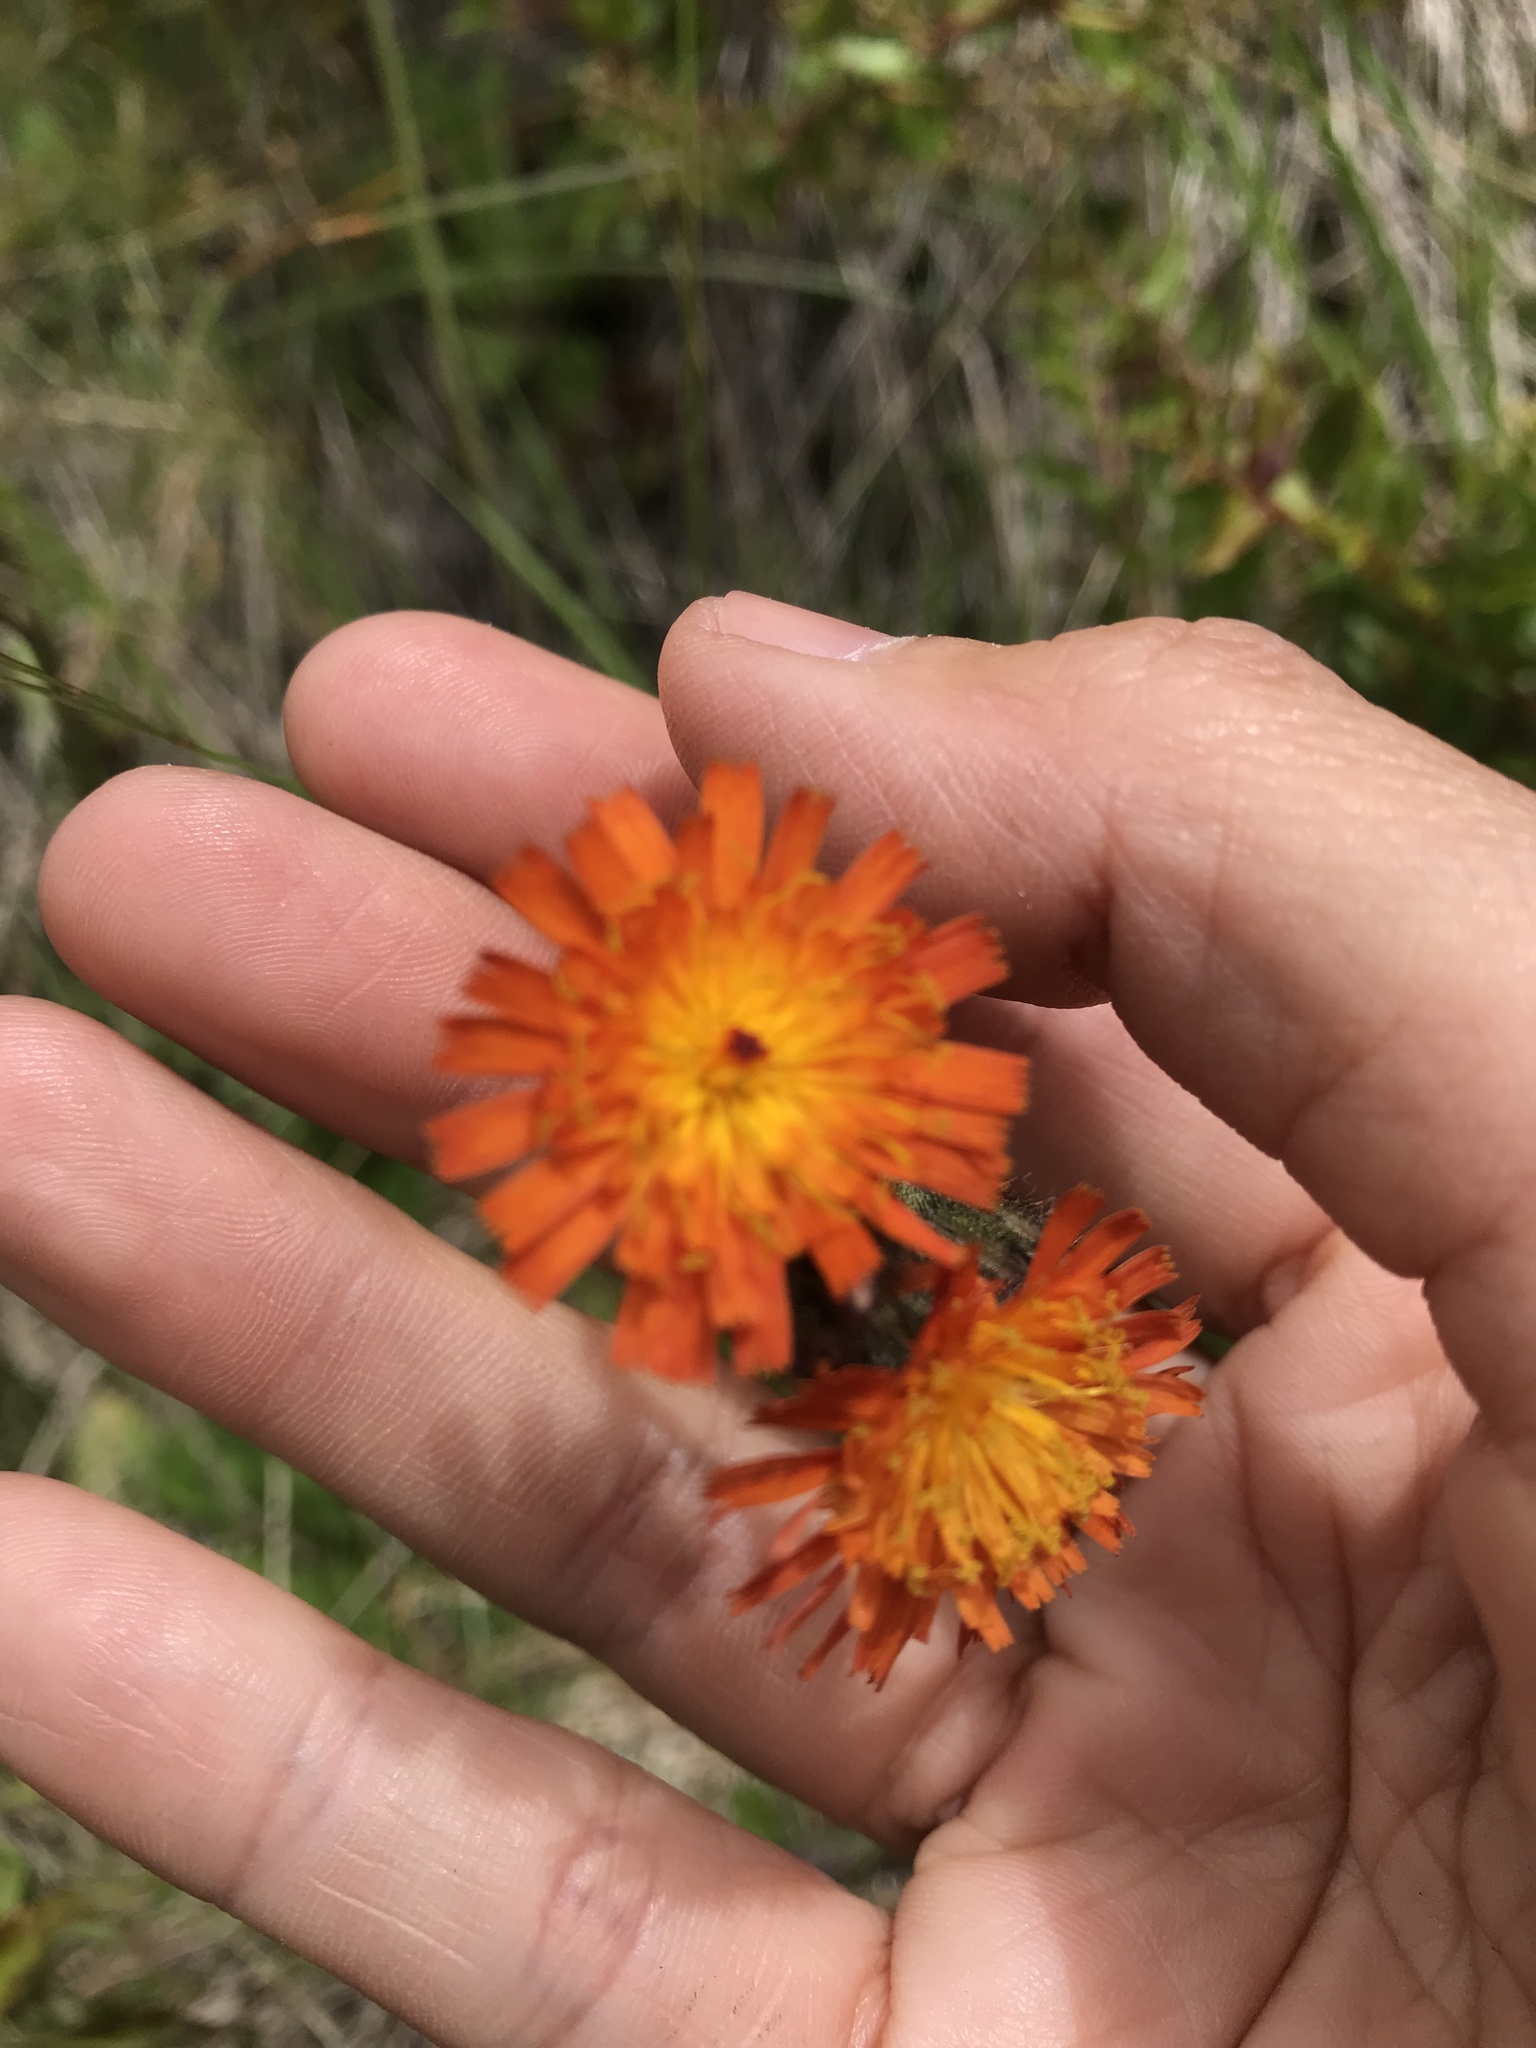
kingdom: Plantae
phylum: Tracheophyta
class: Magnoliopsida
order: Asterales
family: Asteraceae
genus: Pilosella
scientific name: Pilosella aurantiaca
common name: Fox-and-cubs
